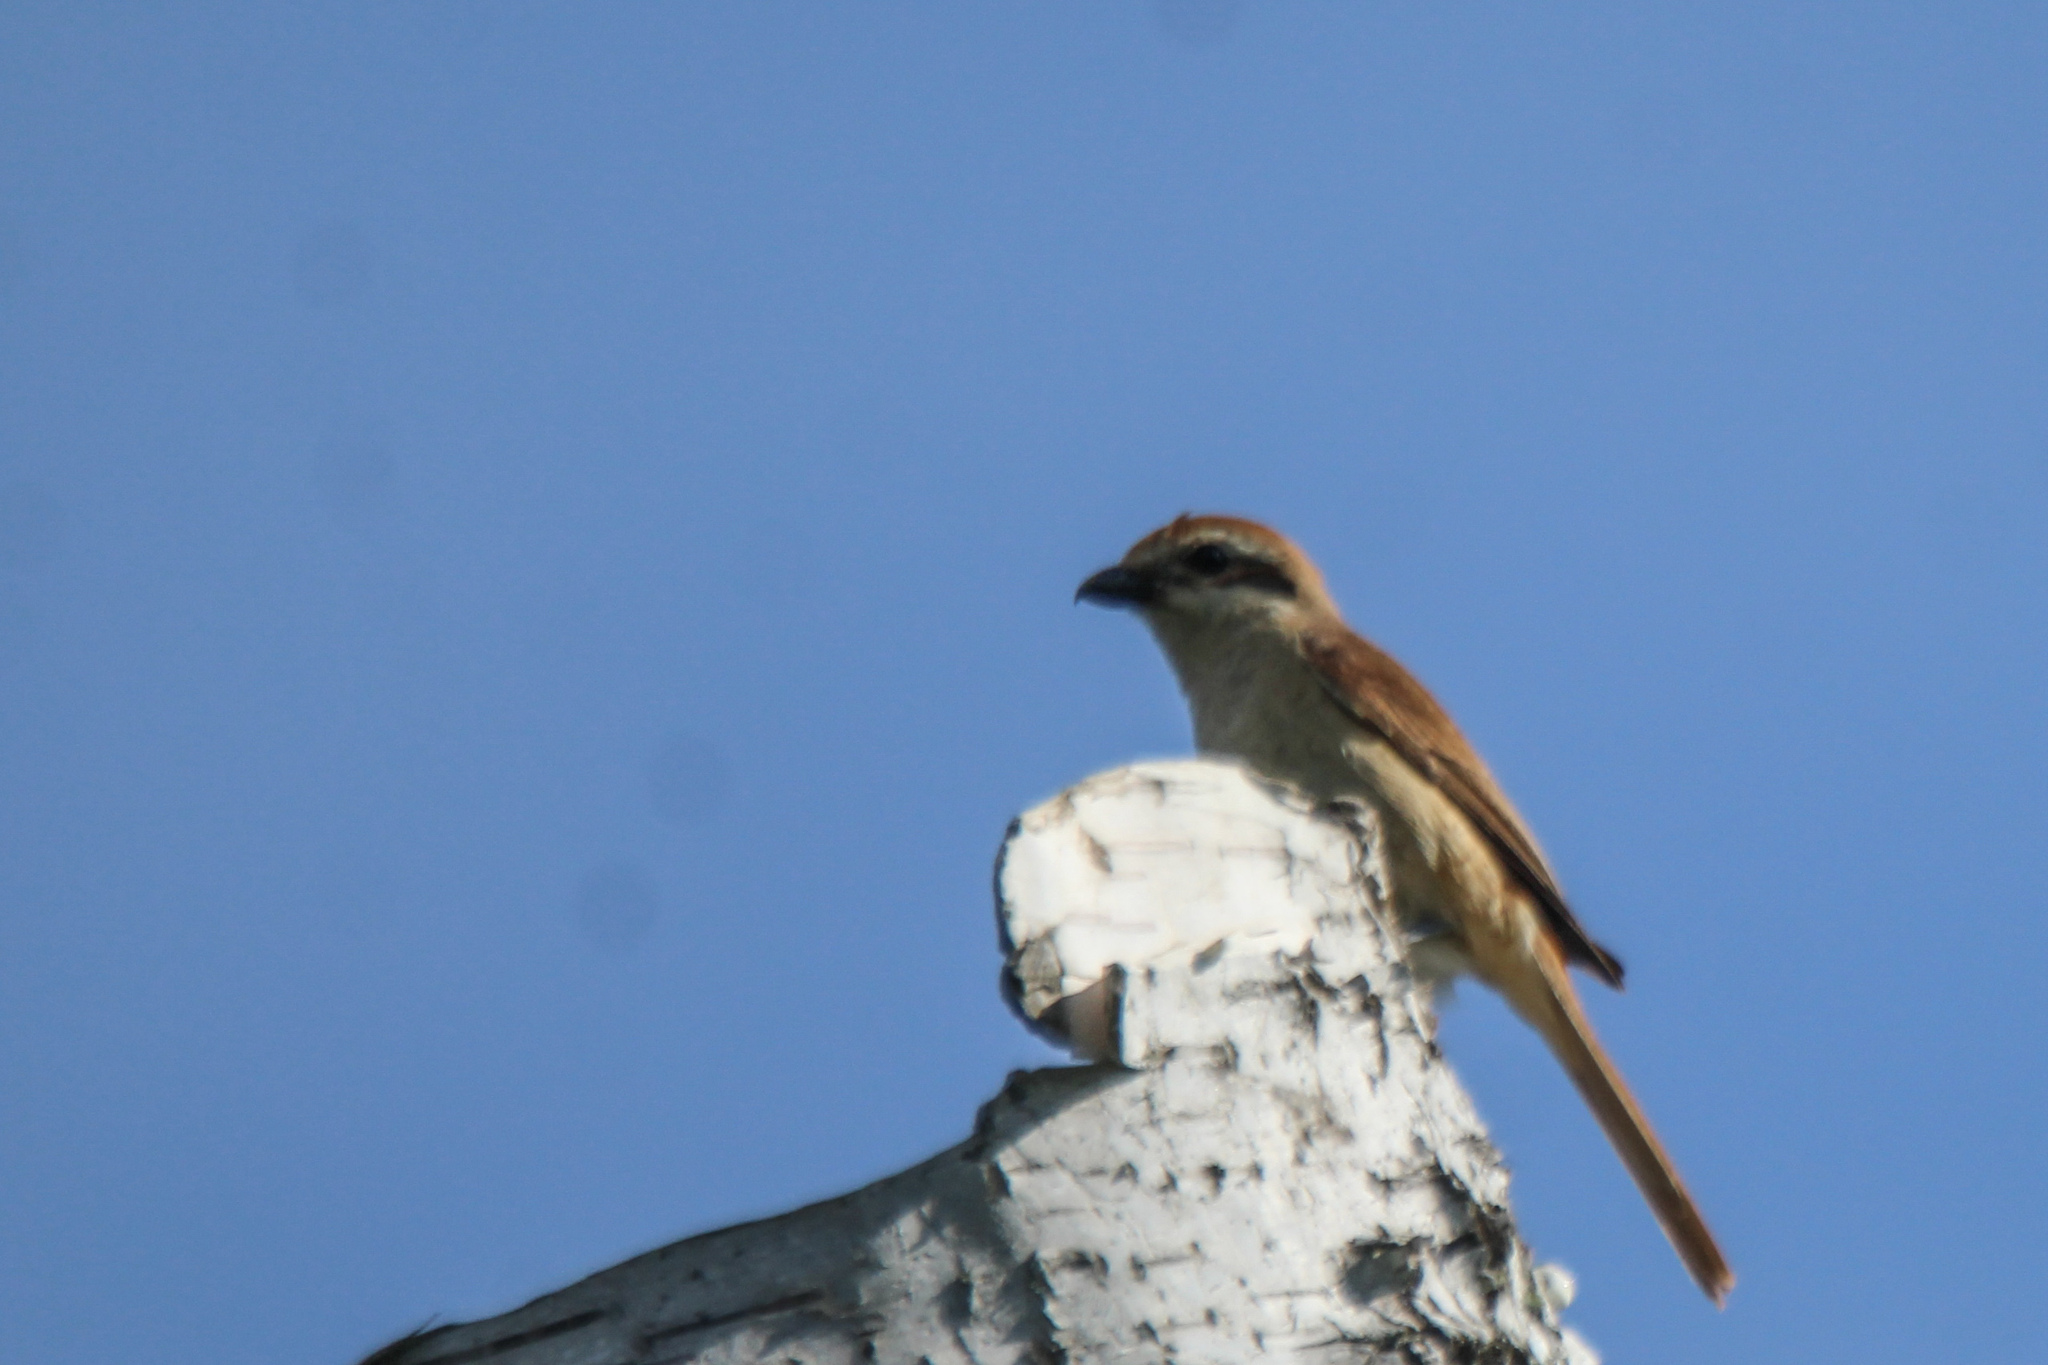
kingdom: Animalia
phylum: Chordata
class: Aves
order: Passeriformes
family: Laniidae
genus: Lanius
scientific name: Lanius cristatus
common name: Brown shrike
